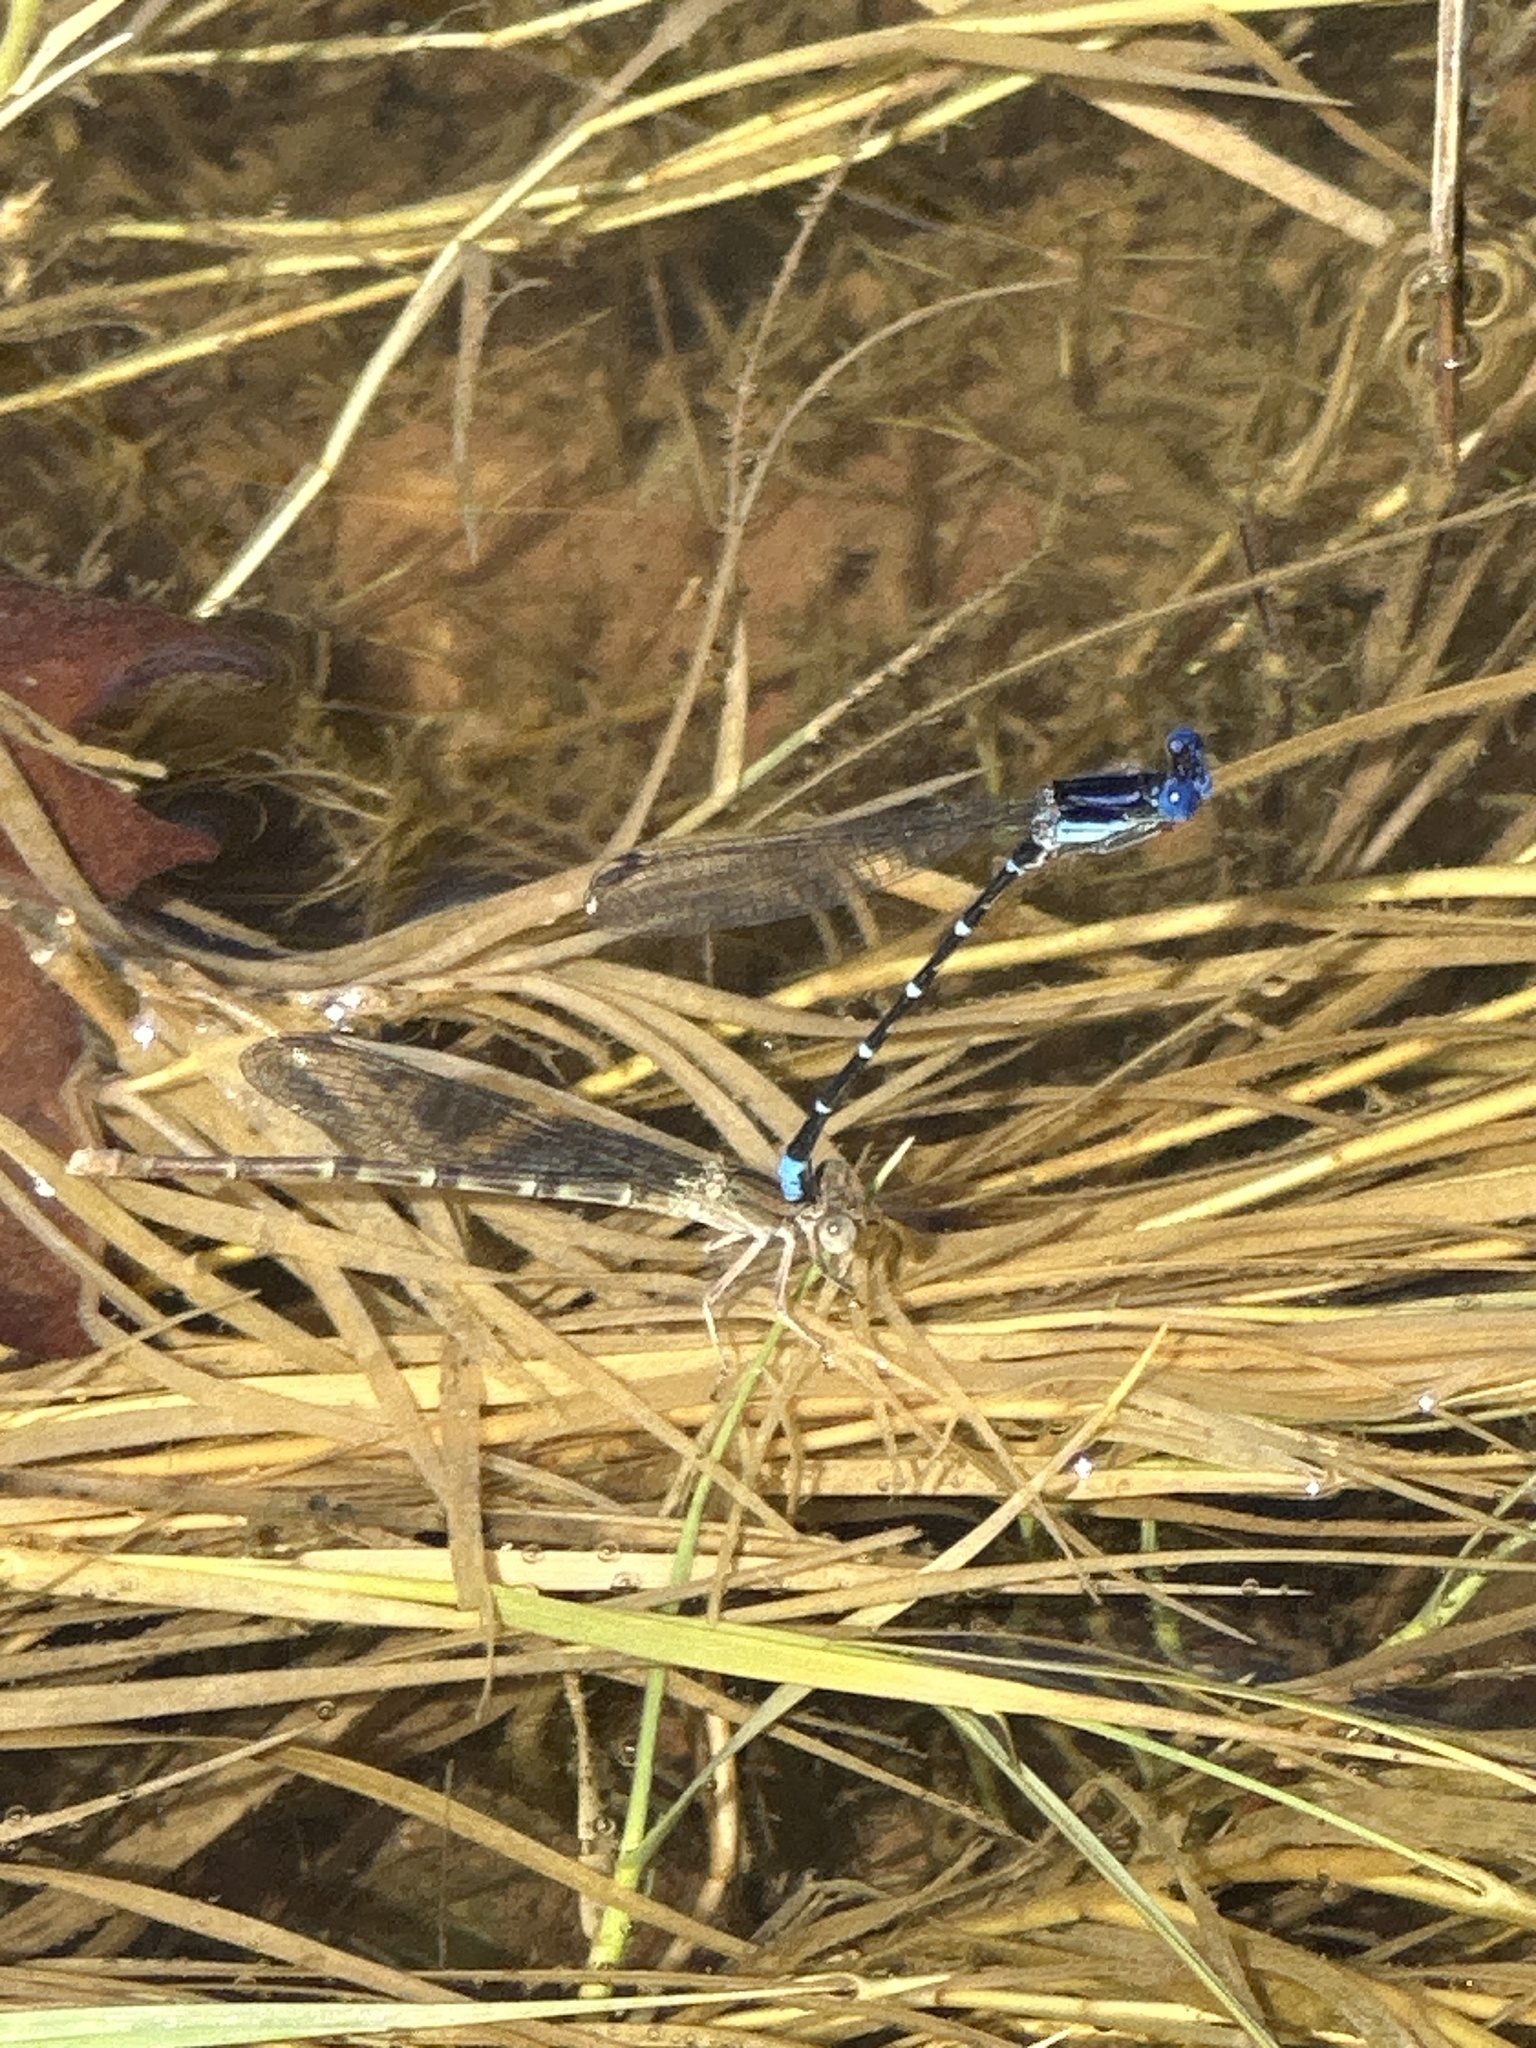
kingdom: Animalia
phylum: Arthropoda
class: Insecta
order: Odonata
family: Coenagrionidae
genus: Argia
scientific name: Argia sedula
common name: Blue-ringed dancer
